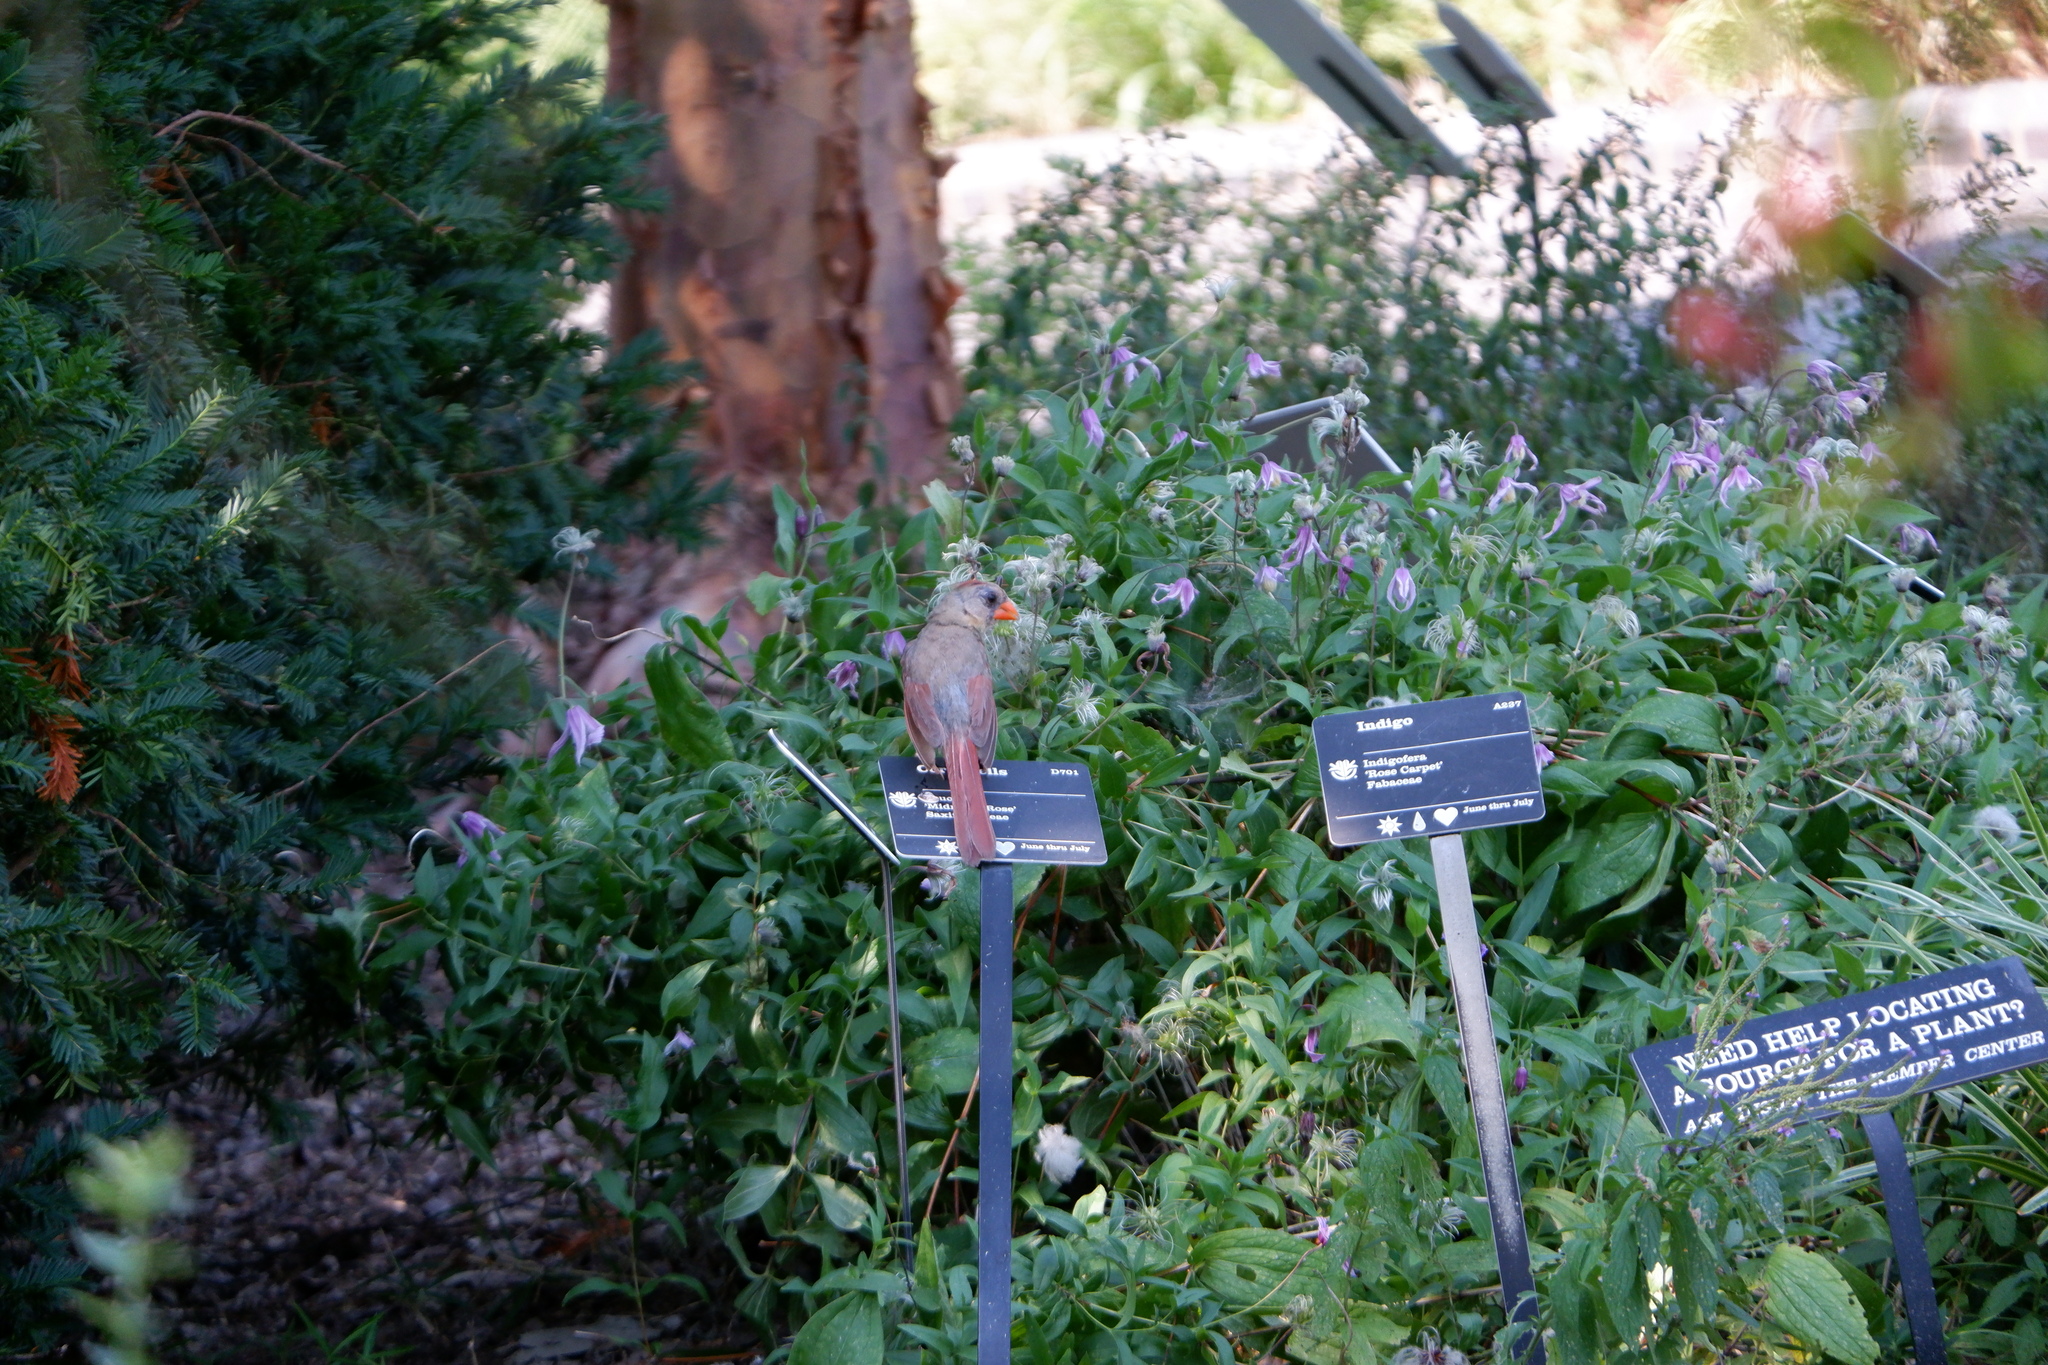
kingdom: Animalia
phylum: Chordata
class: Aves
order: Passeriformes
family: Cardinalidae
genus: Cardinalis
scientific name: Cardinalis cardinalis
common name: Northern cardinal
